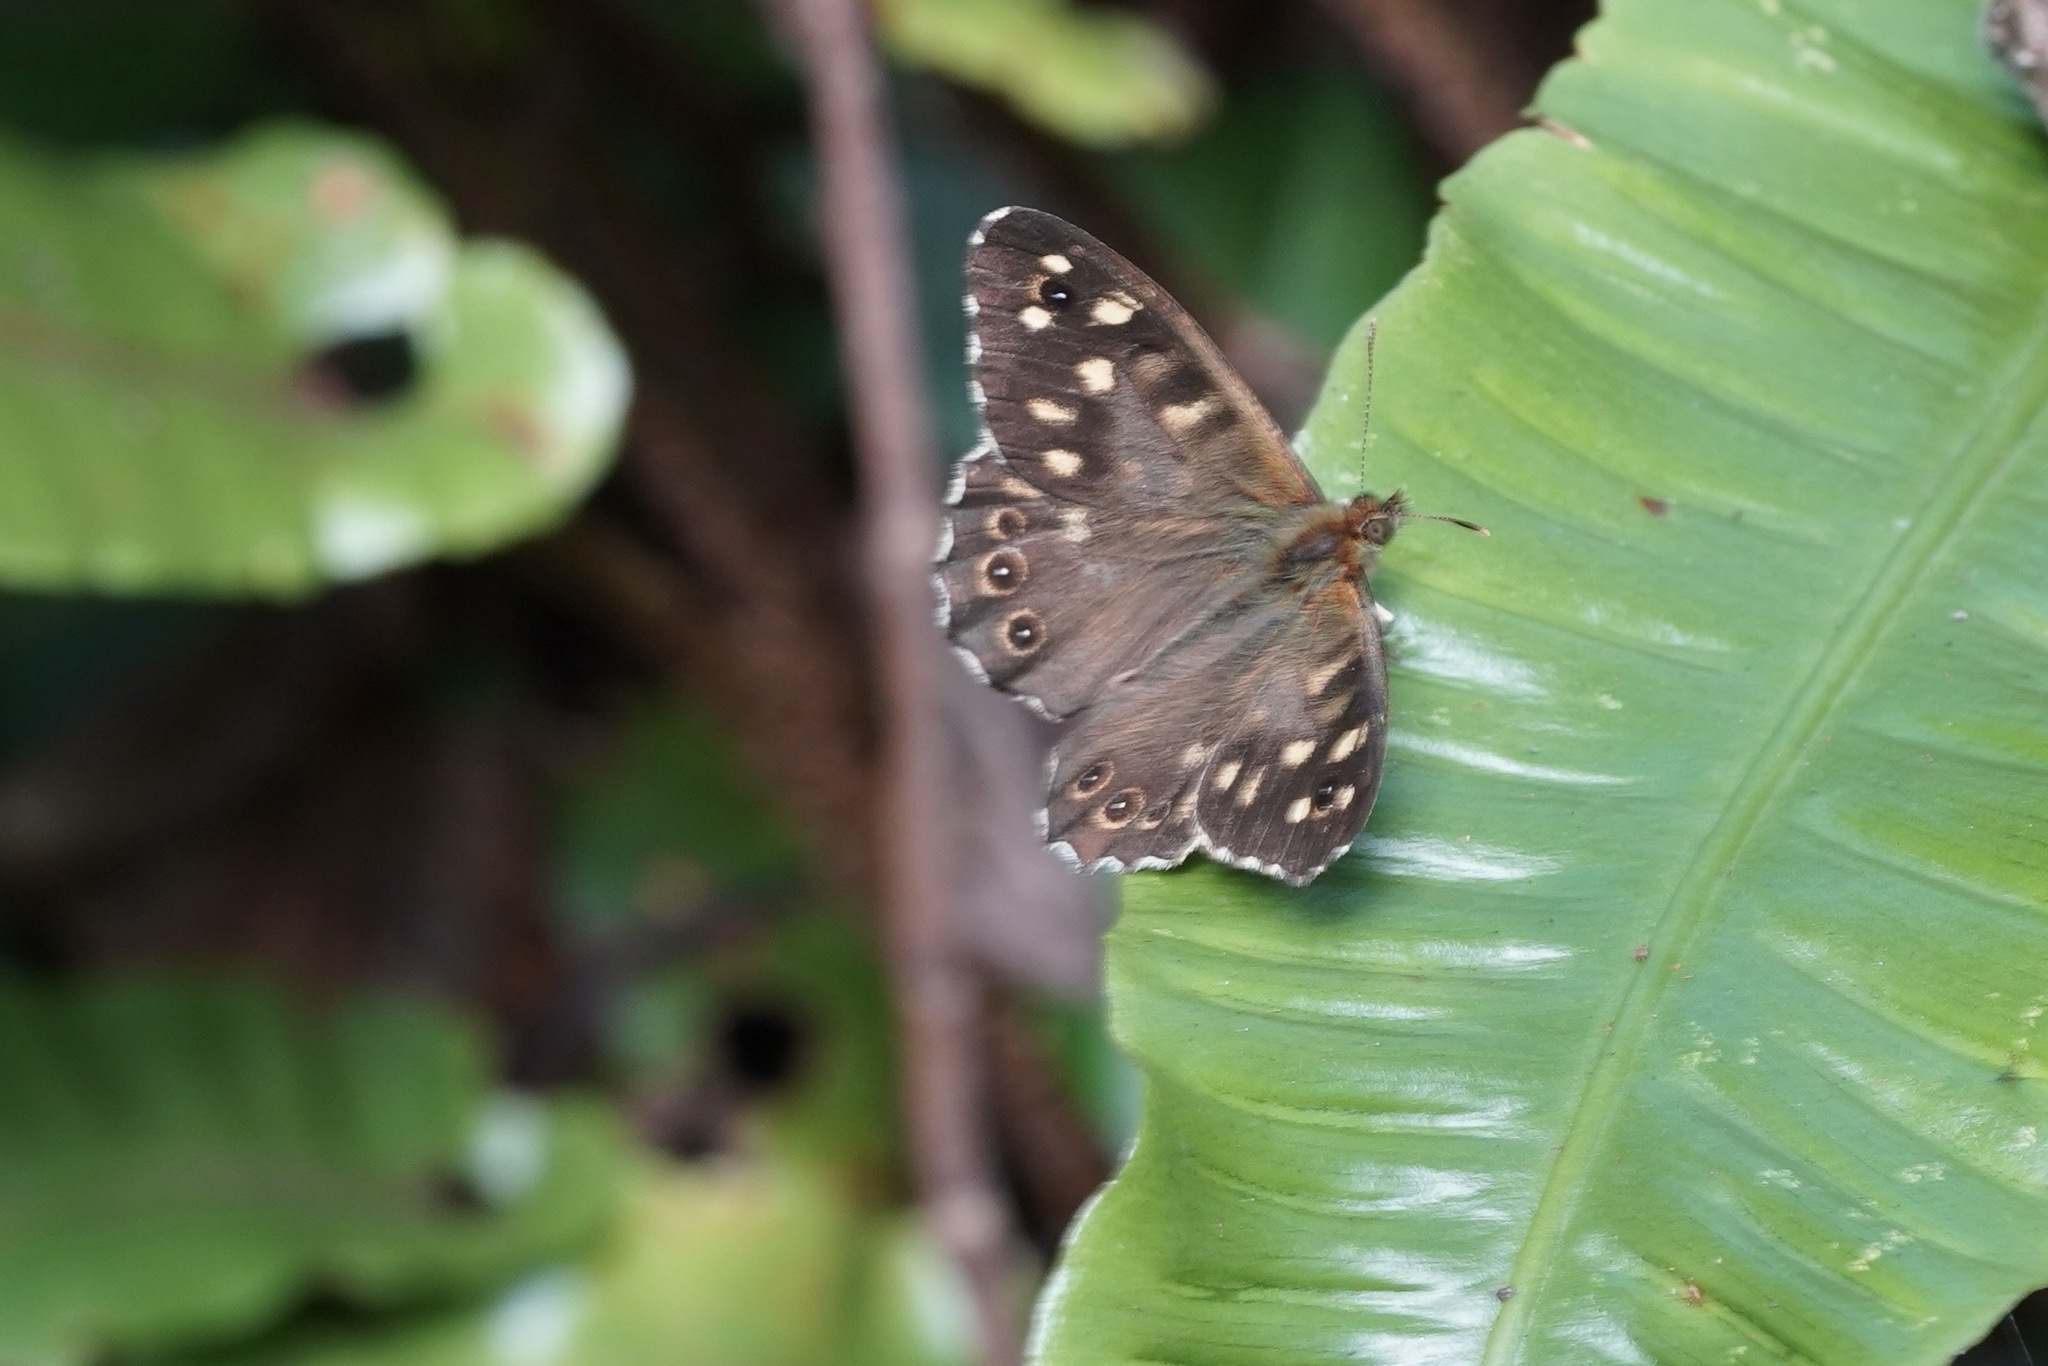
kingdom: Animalia
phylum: Arthropoda
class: Insecta
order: Lepidoptera
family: Nymphalidae
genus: Pararge
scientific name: Pararge aegeria
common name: Speckled wood
